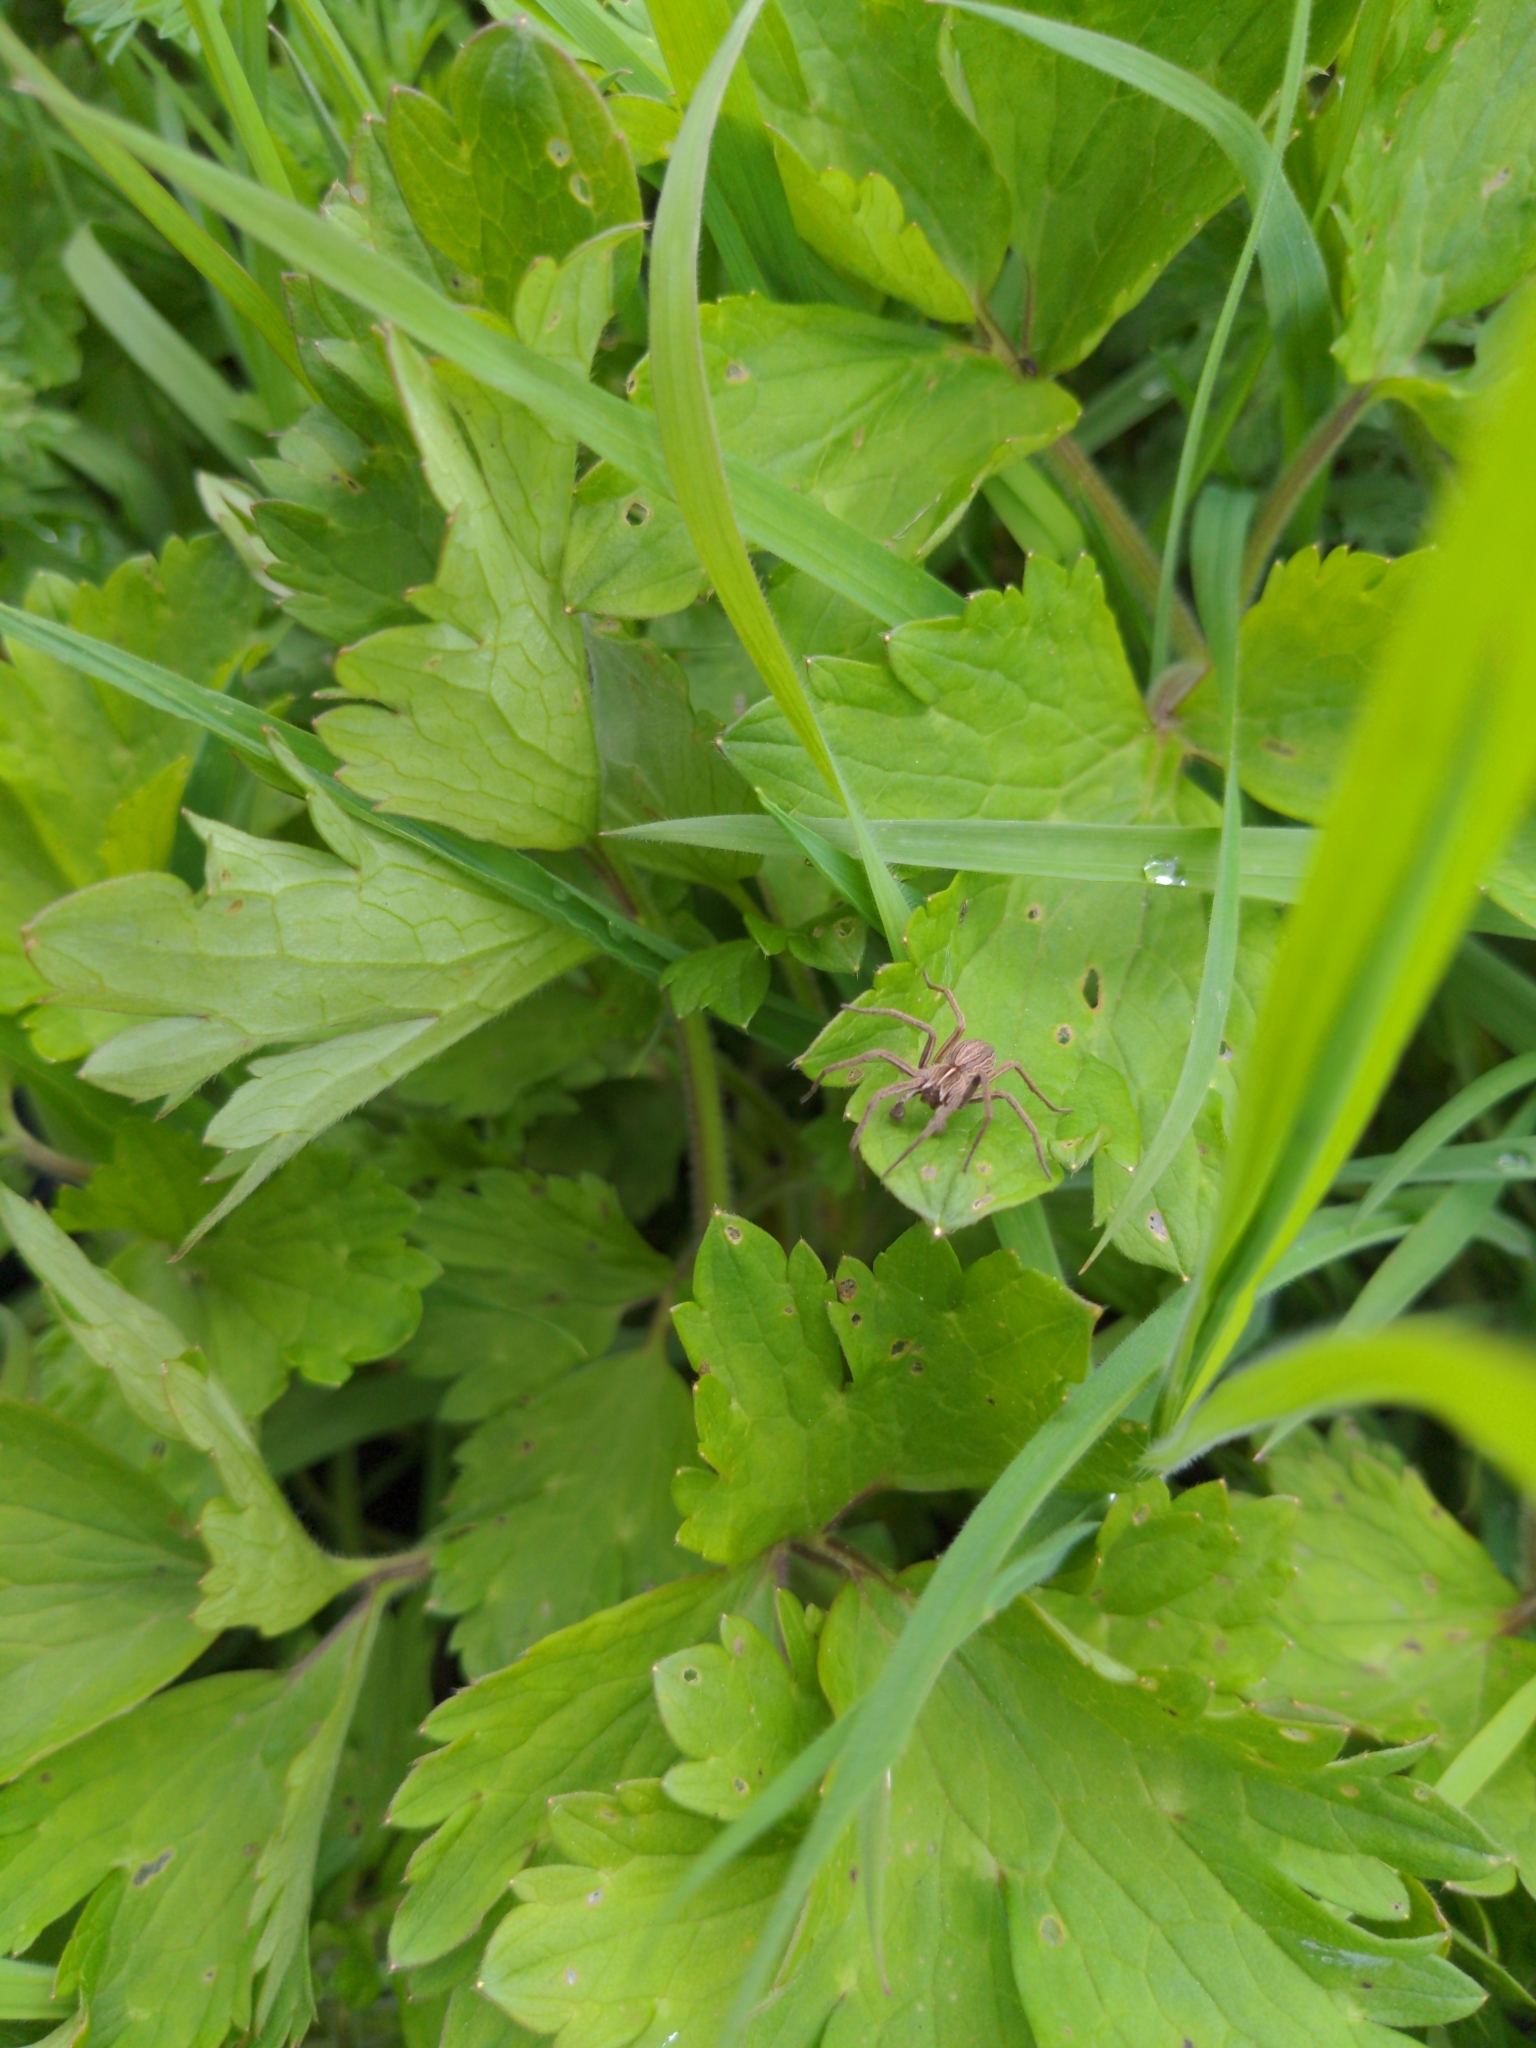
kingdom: Animalia
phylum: Arthropoda
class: Arachnida
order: Araneae
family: Pisauridae
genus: Pisaura
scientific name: Pisaura mirabilis
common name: Tent spider
